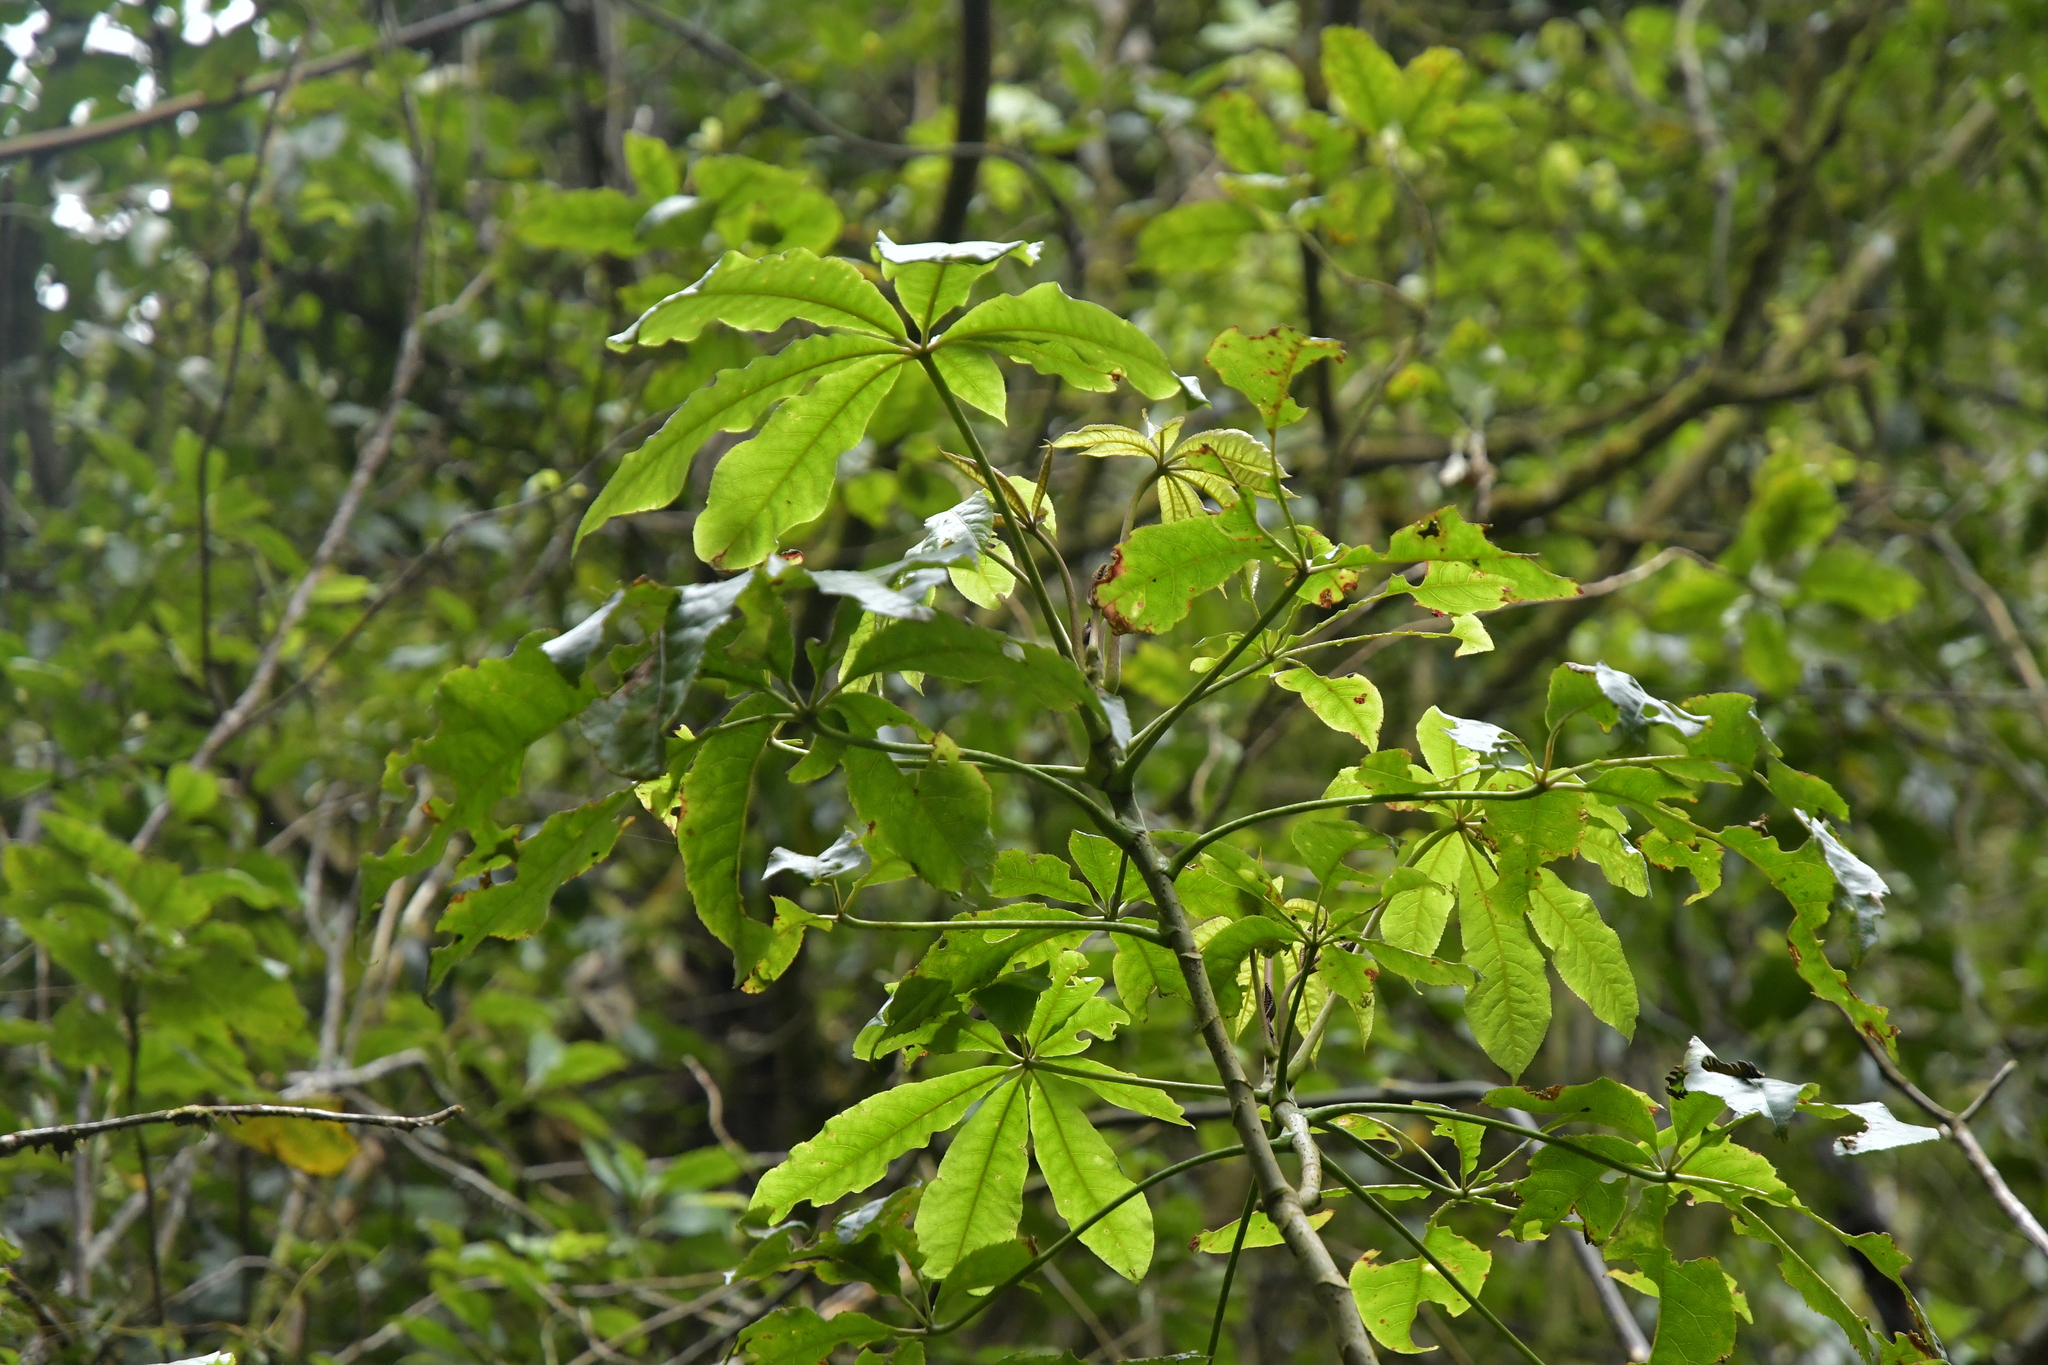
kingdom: Plantae
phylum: Tracheophyta
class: Magnoliopsida
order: Apiales
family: Araliaceae
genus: Schefflera
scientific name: Schefflera digitata
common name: Pate
